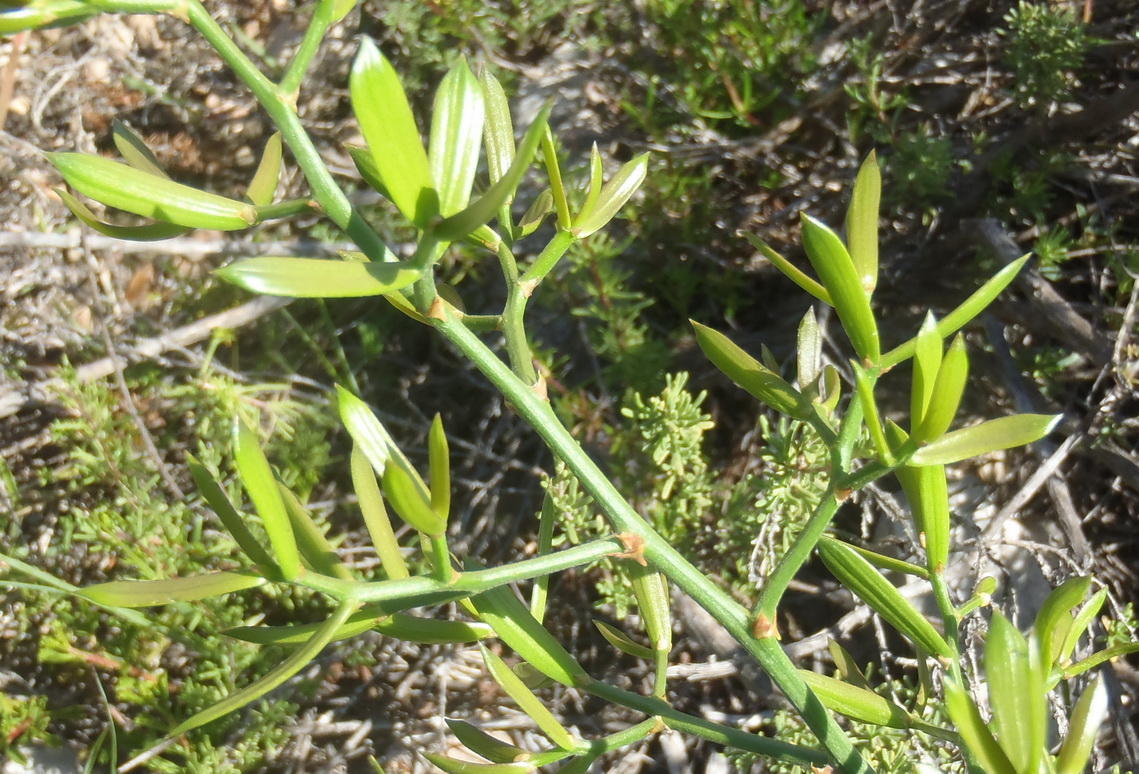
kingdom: Plantae
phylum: Tracheophyta
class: Liliopsida
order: Asparagales
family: Asparagaceae
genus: Asparagus
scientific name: Asparagus striatus
